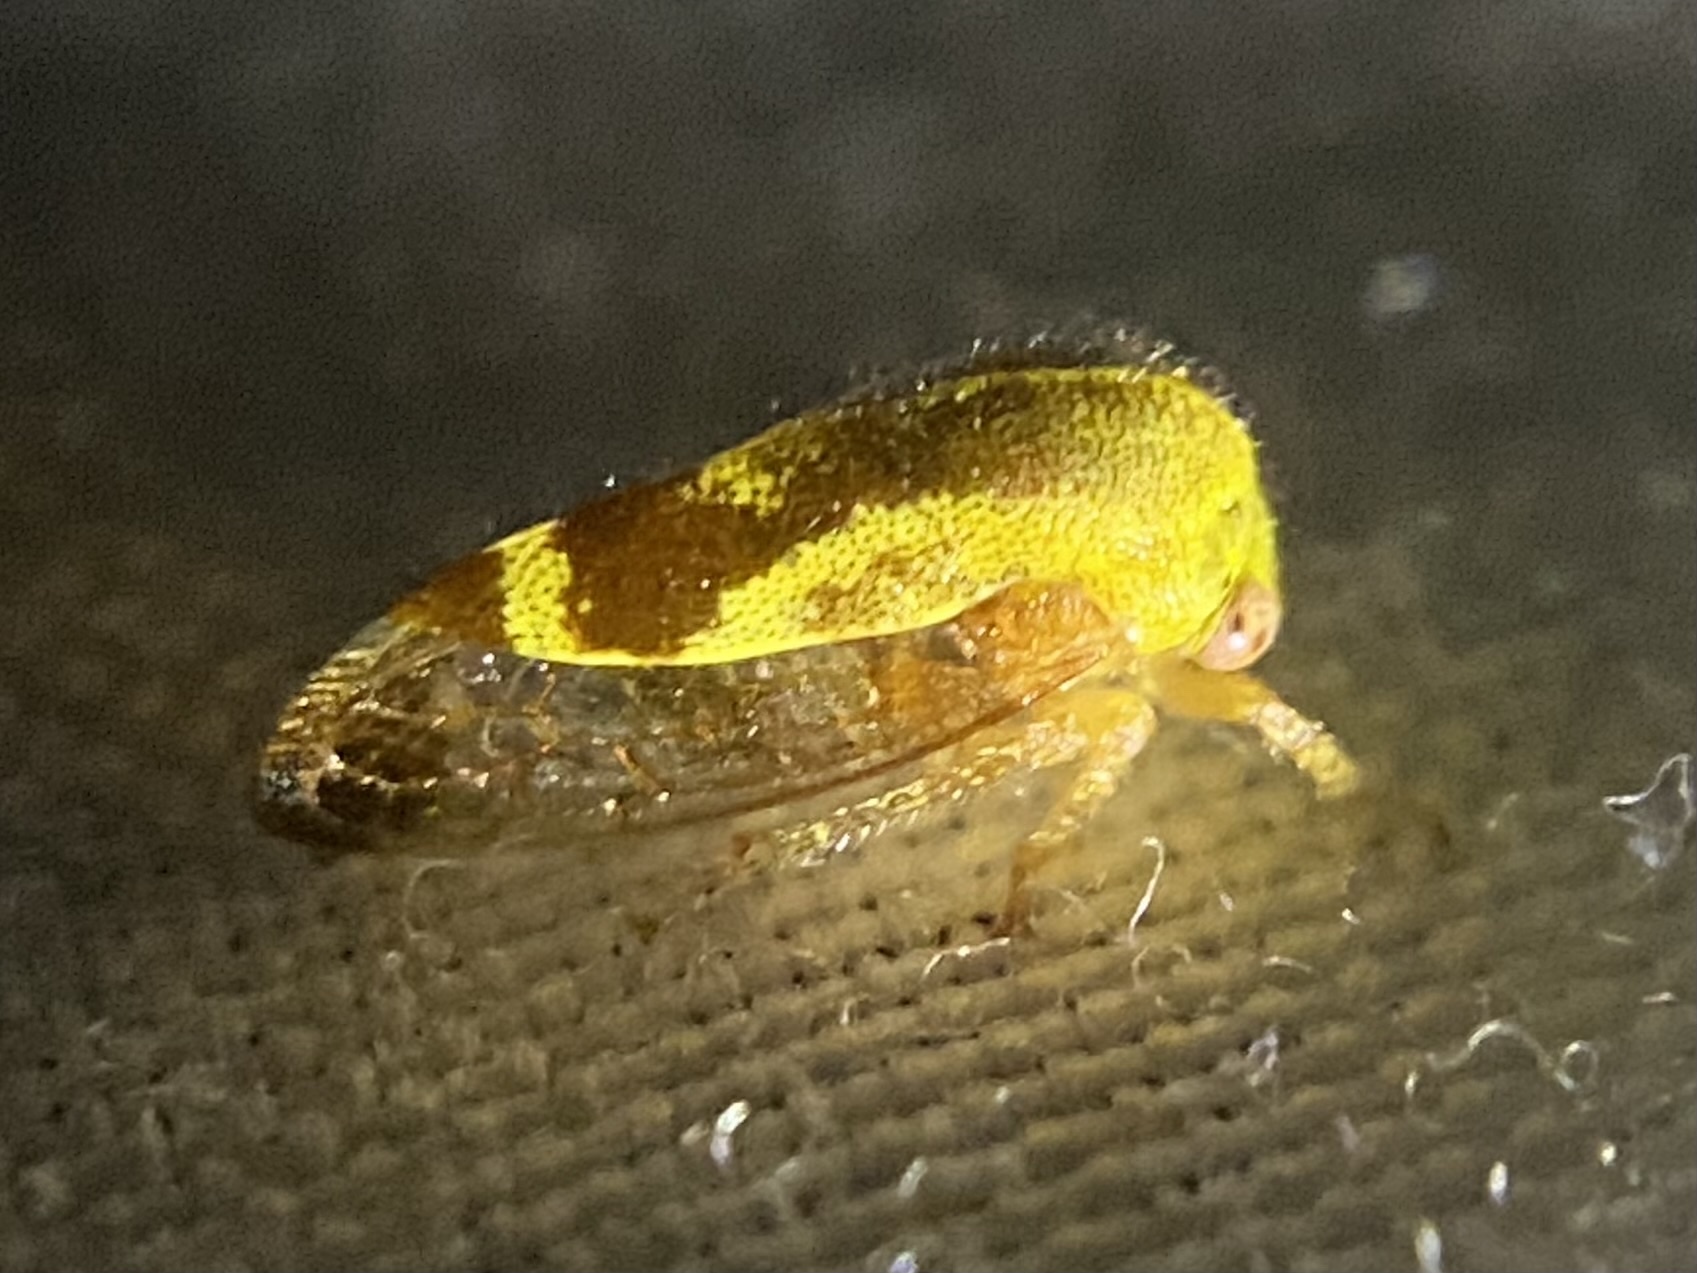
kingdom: Animalia
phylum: Arthropoda
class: Insecta
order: Hemiptera
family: Membracidae
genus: Ophiderma
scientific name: Ophiderma evelyna
